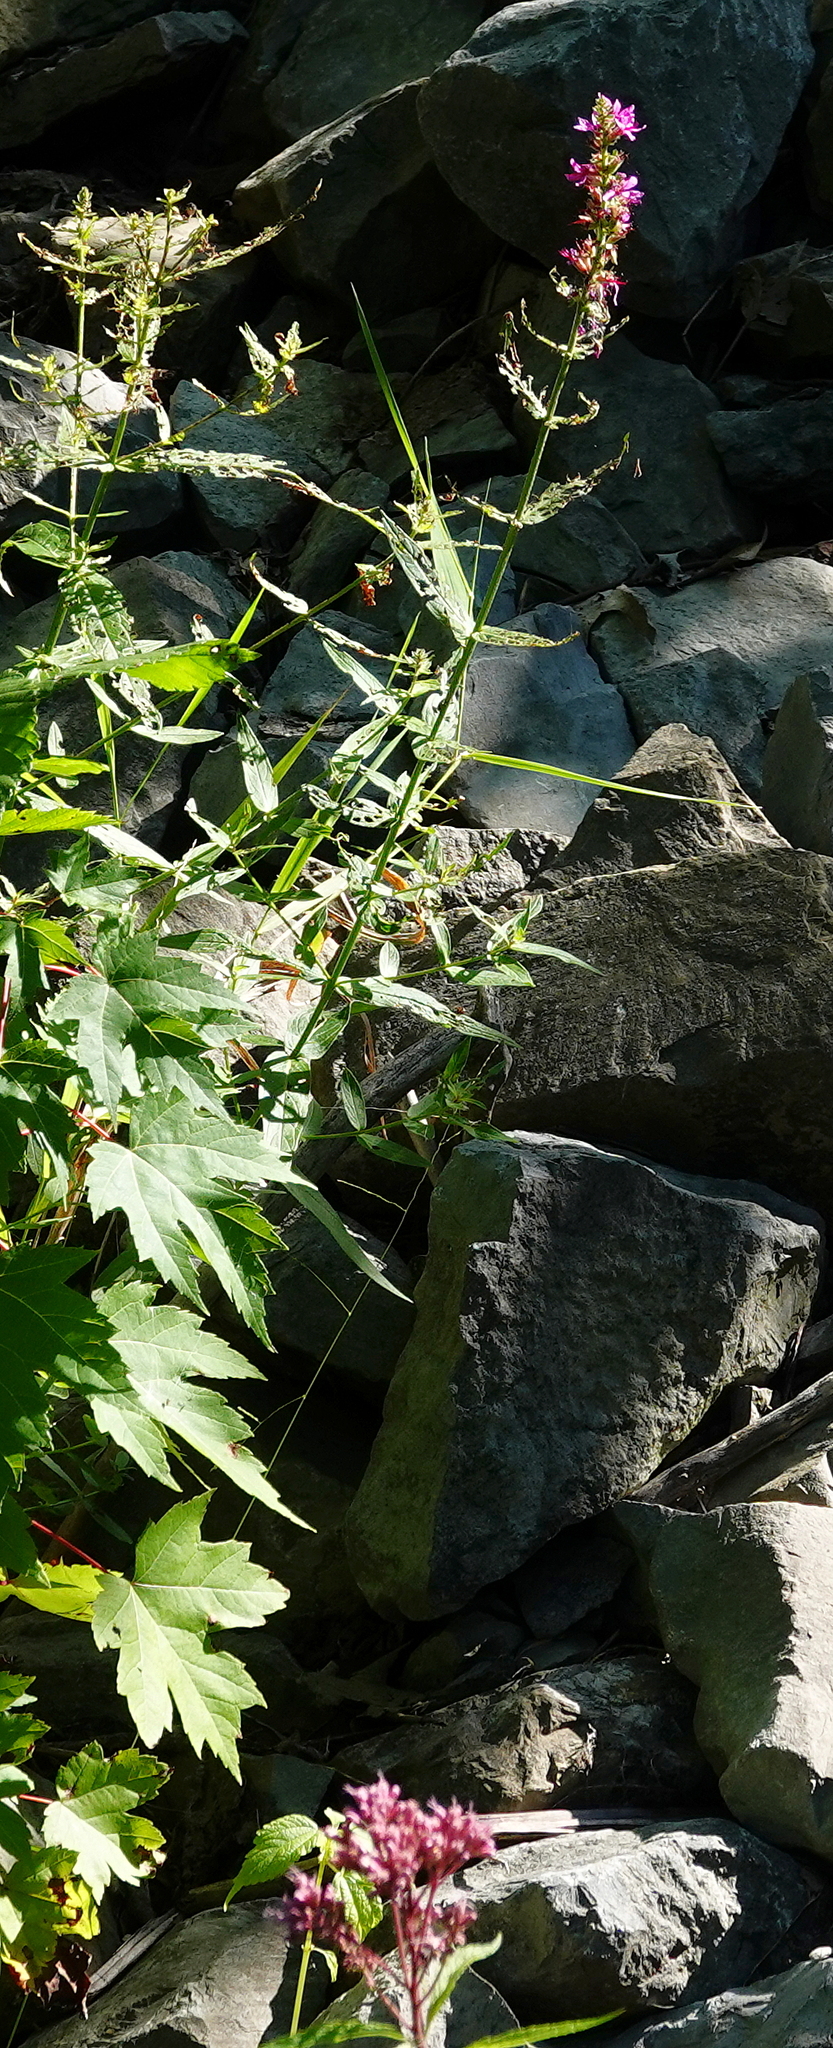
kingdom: Plantae
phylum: Tracheophyta
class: Magnoliopsida
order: Myrtales
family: Lythraceae
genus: Lythrum
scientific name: Lythrum salicaria
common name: Purple loosestrife
